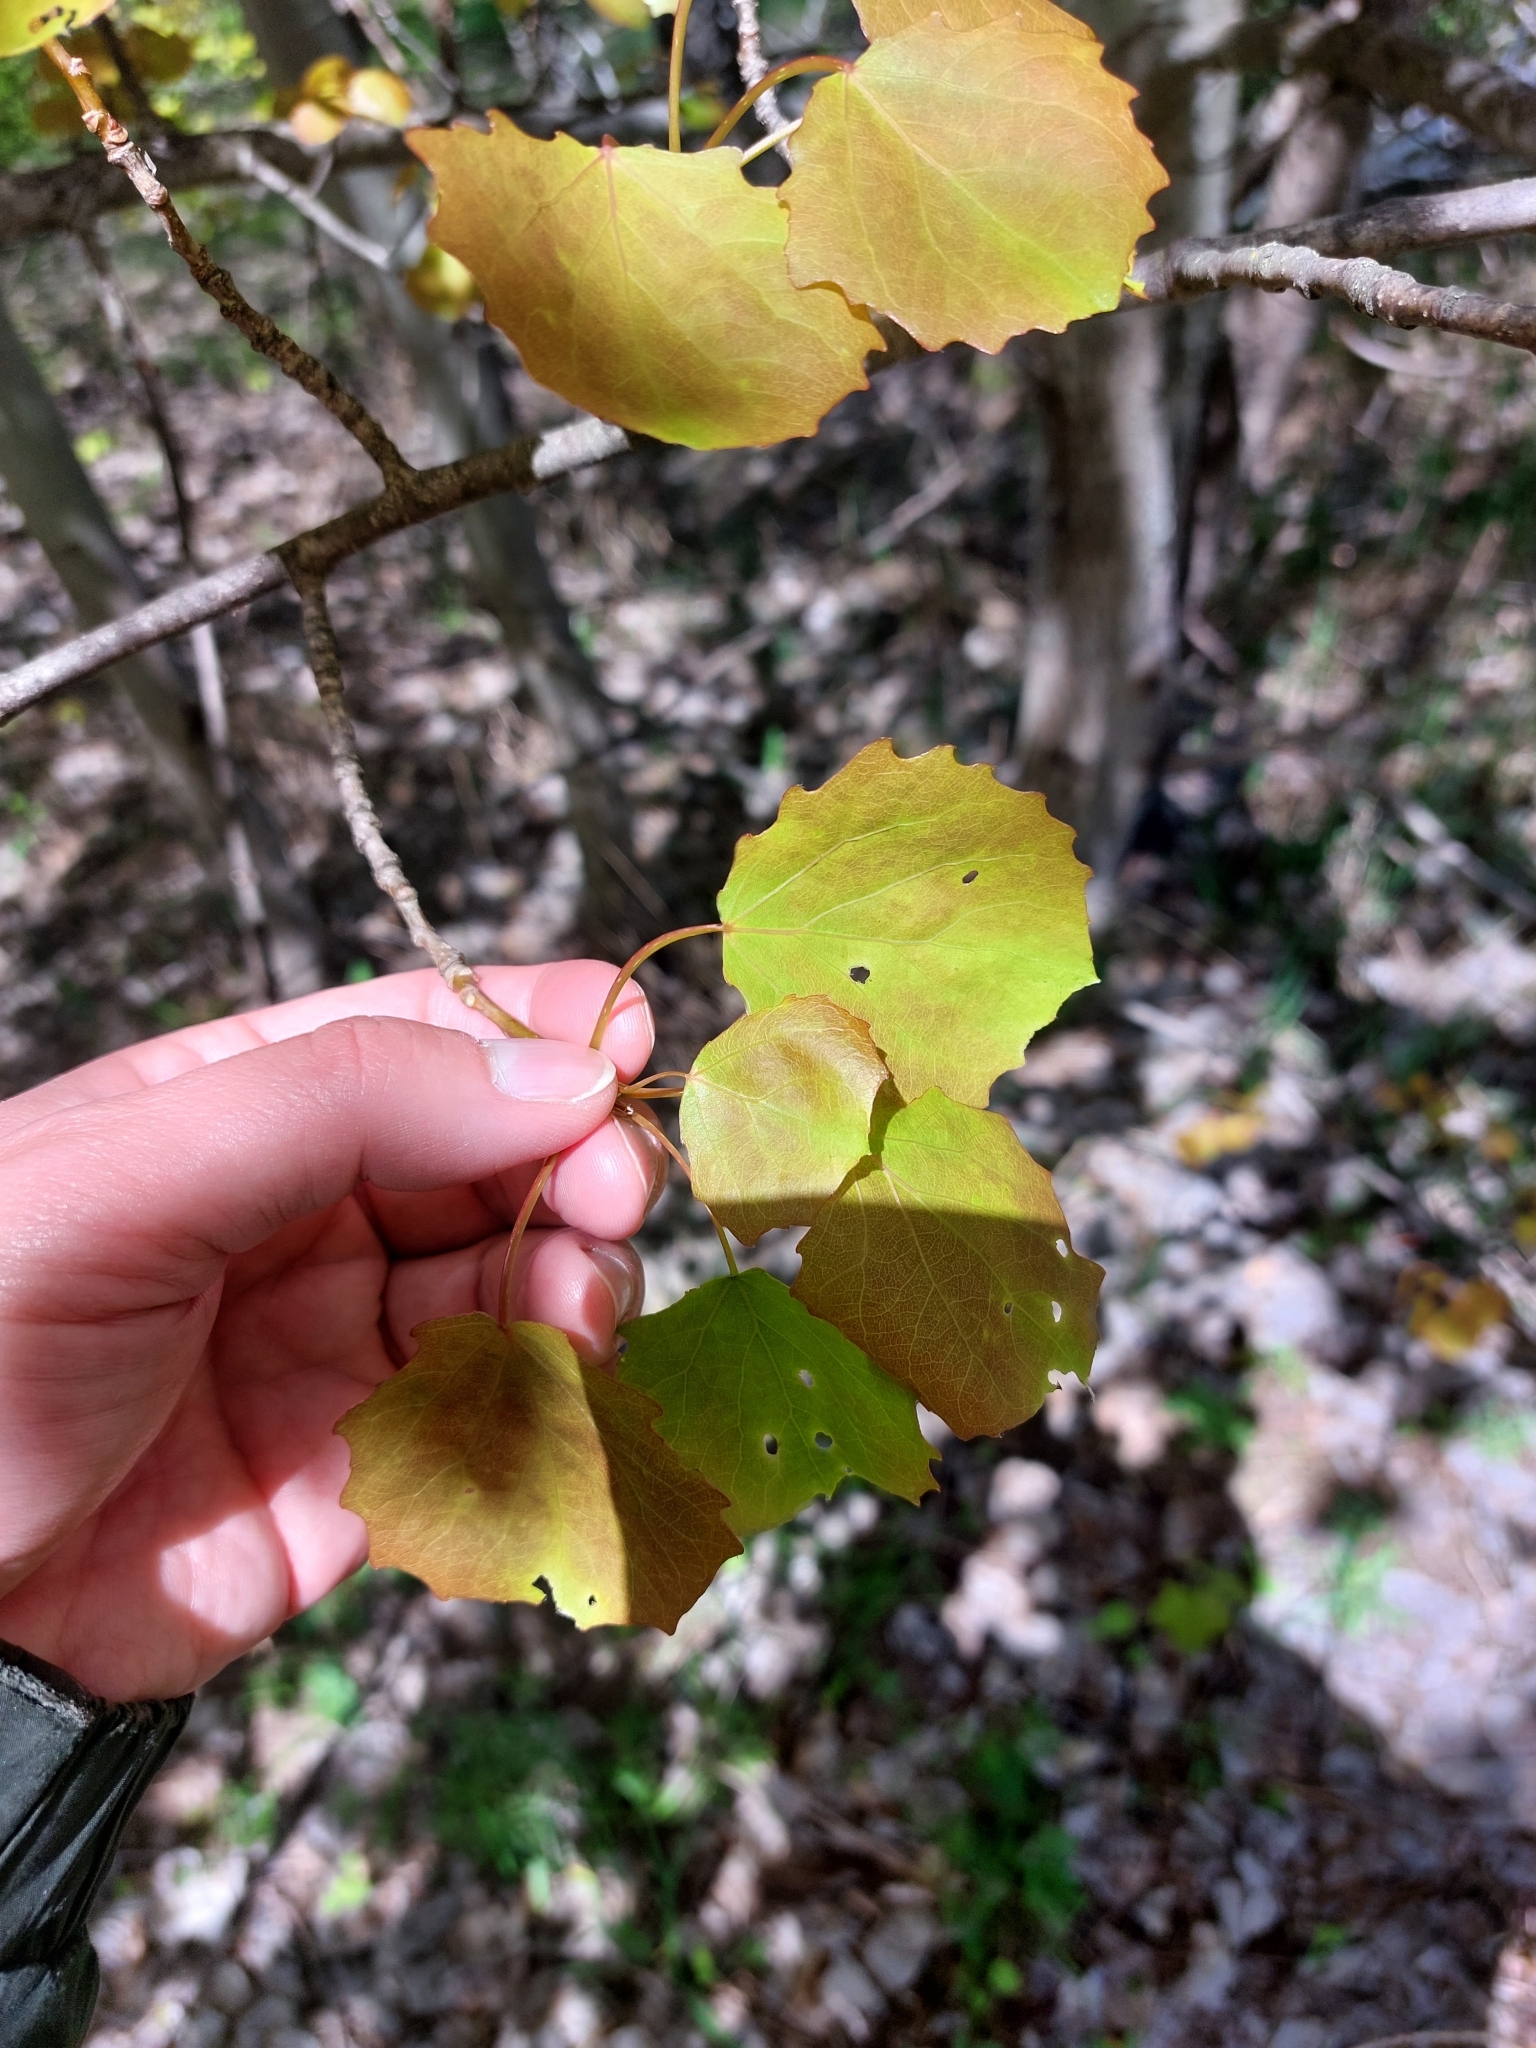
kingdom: Plantae
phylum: Tracheophyta
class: Magnoliopsida
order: Malpighiales
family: Salicaceae
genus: Populus
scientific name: Populus tremula
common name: European aspen
